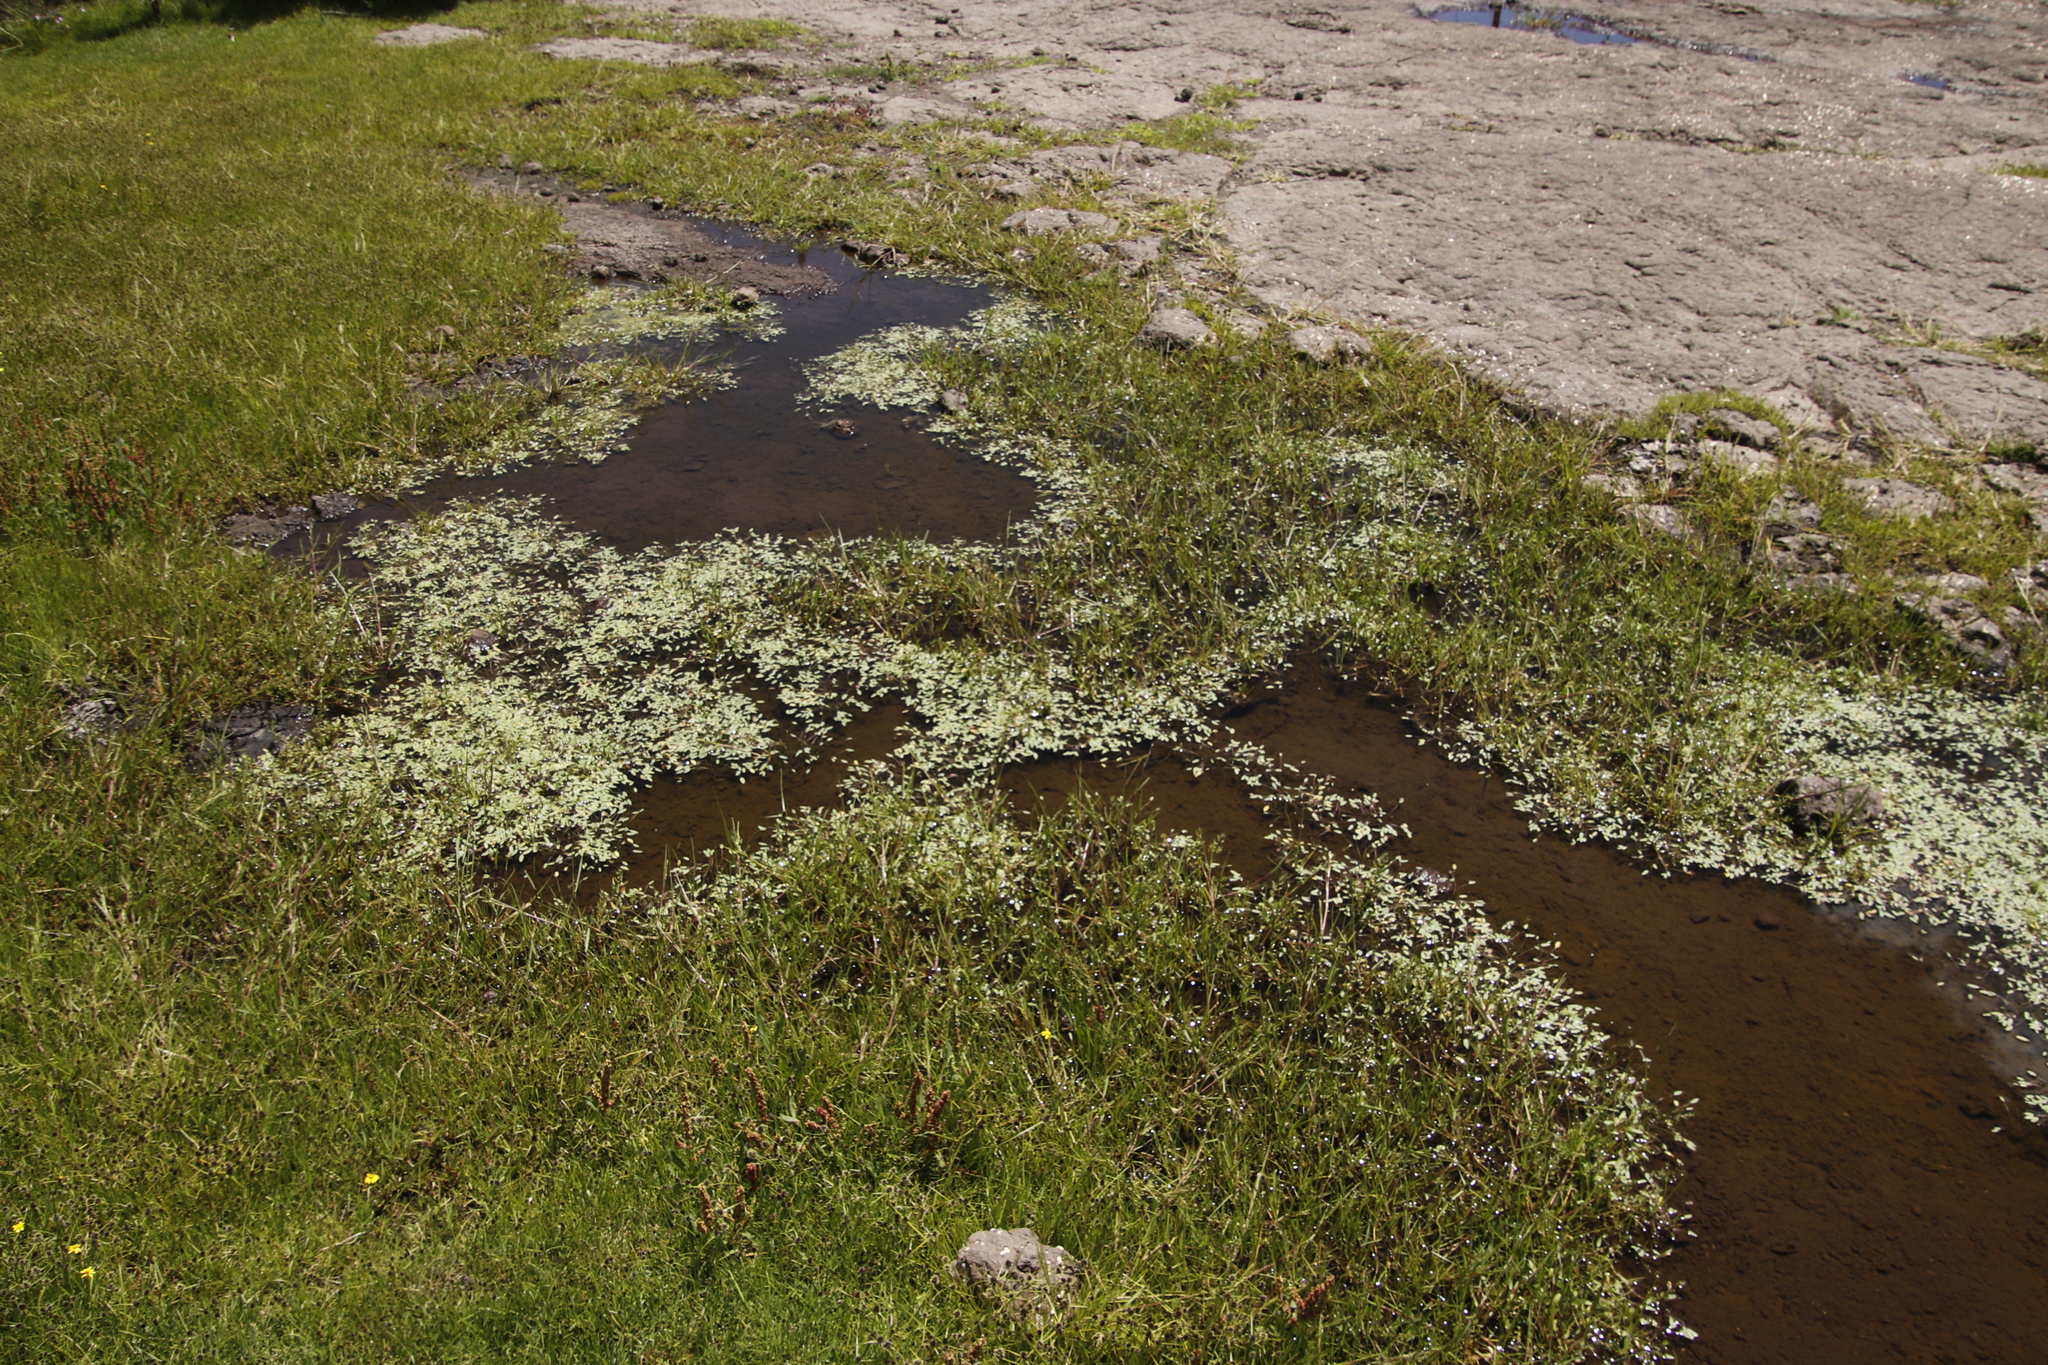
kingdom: Plantae
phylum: Tracheophyta
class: Liliopsida
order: Poales
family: Cyperaceae
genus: Cyperus
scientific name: Cyperus bracheilema
